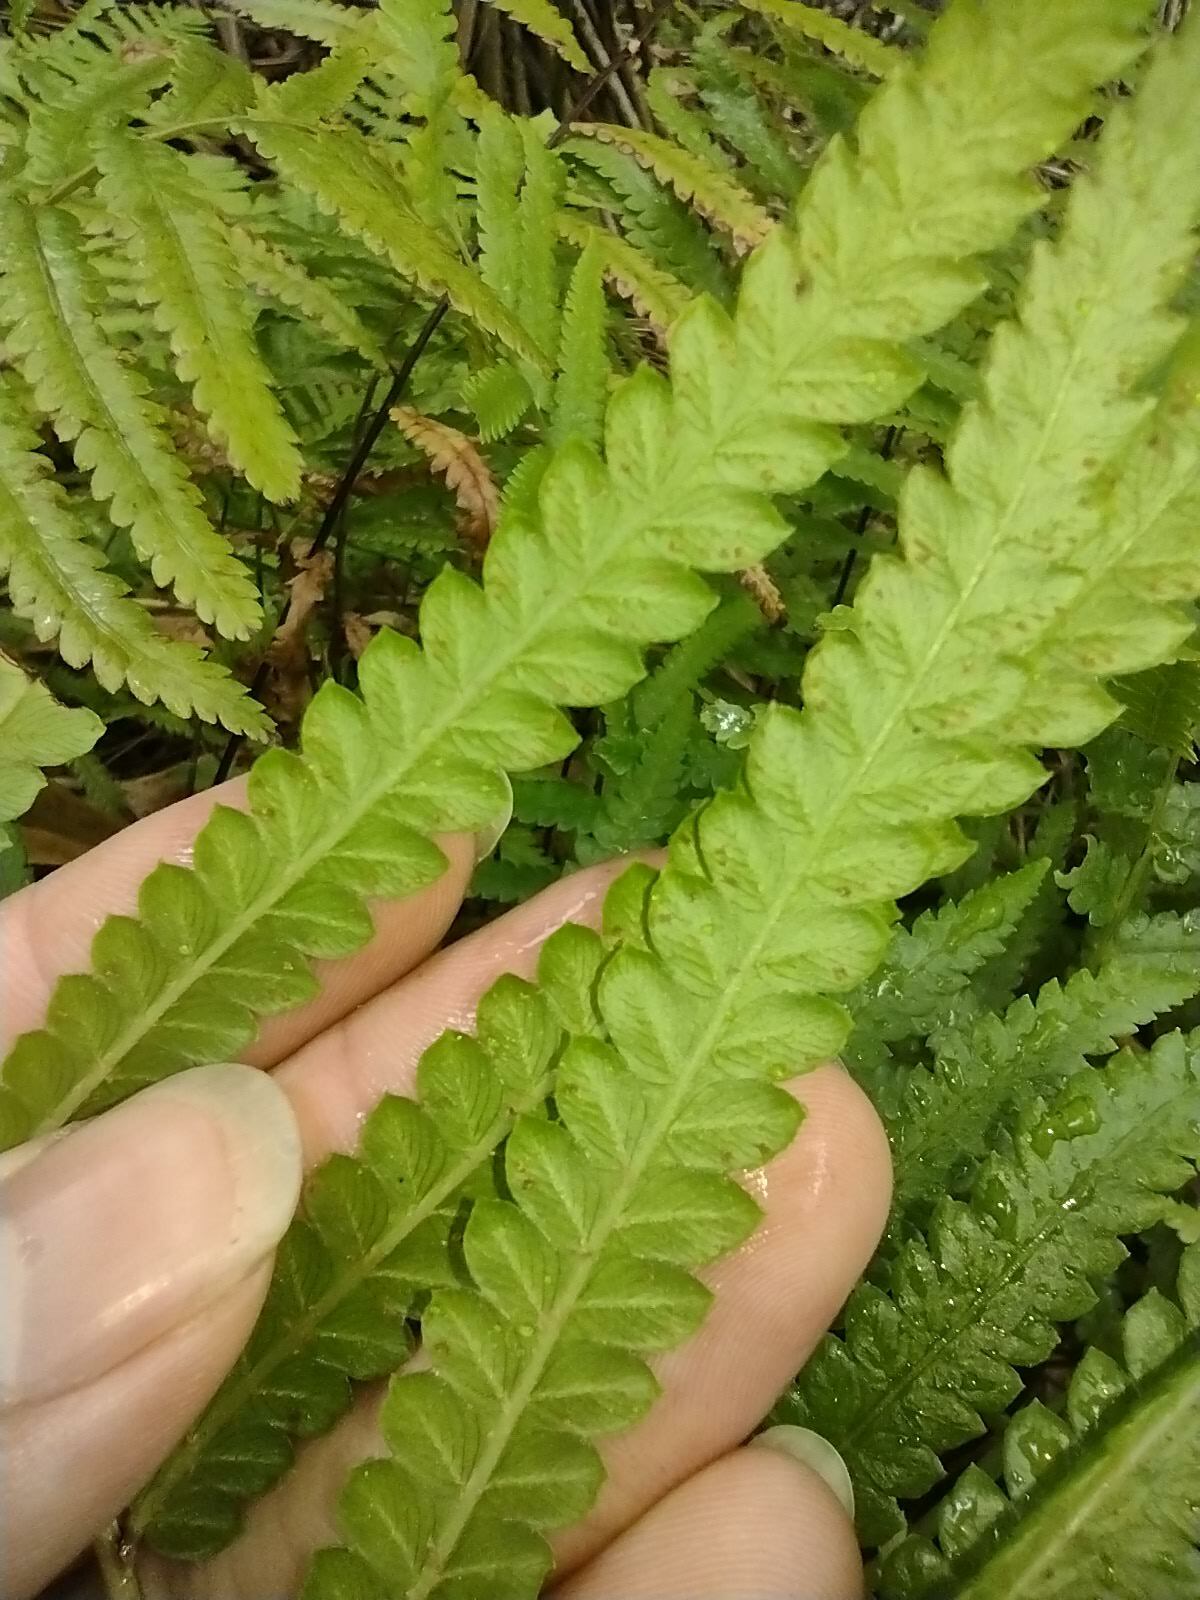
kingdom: Plantae
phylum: Tracheophyta
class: Polypodiopsida
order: Polypodiales
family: Thelypteridaceae
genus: Cyclosorus
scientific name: Cyclosorus interruptus
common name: Neke fern
